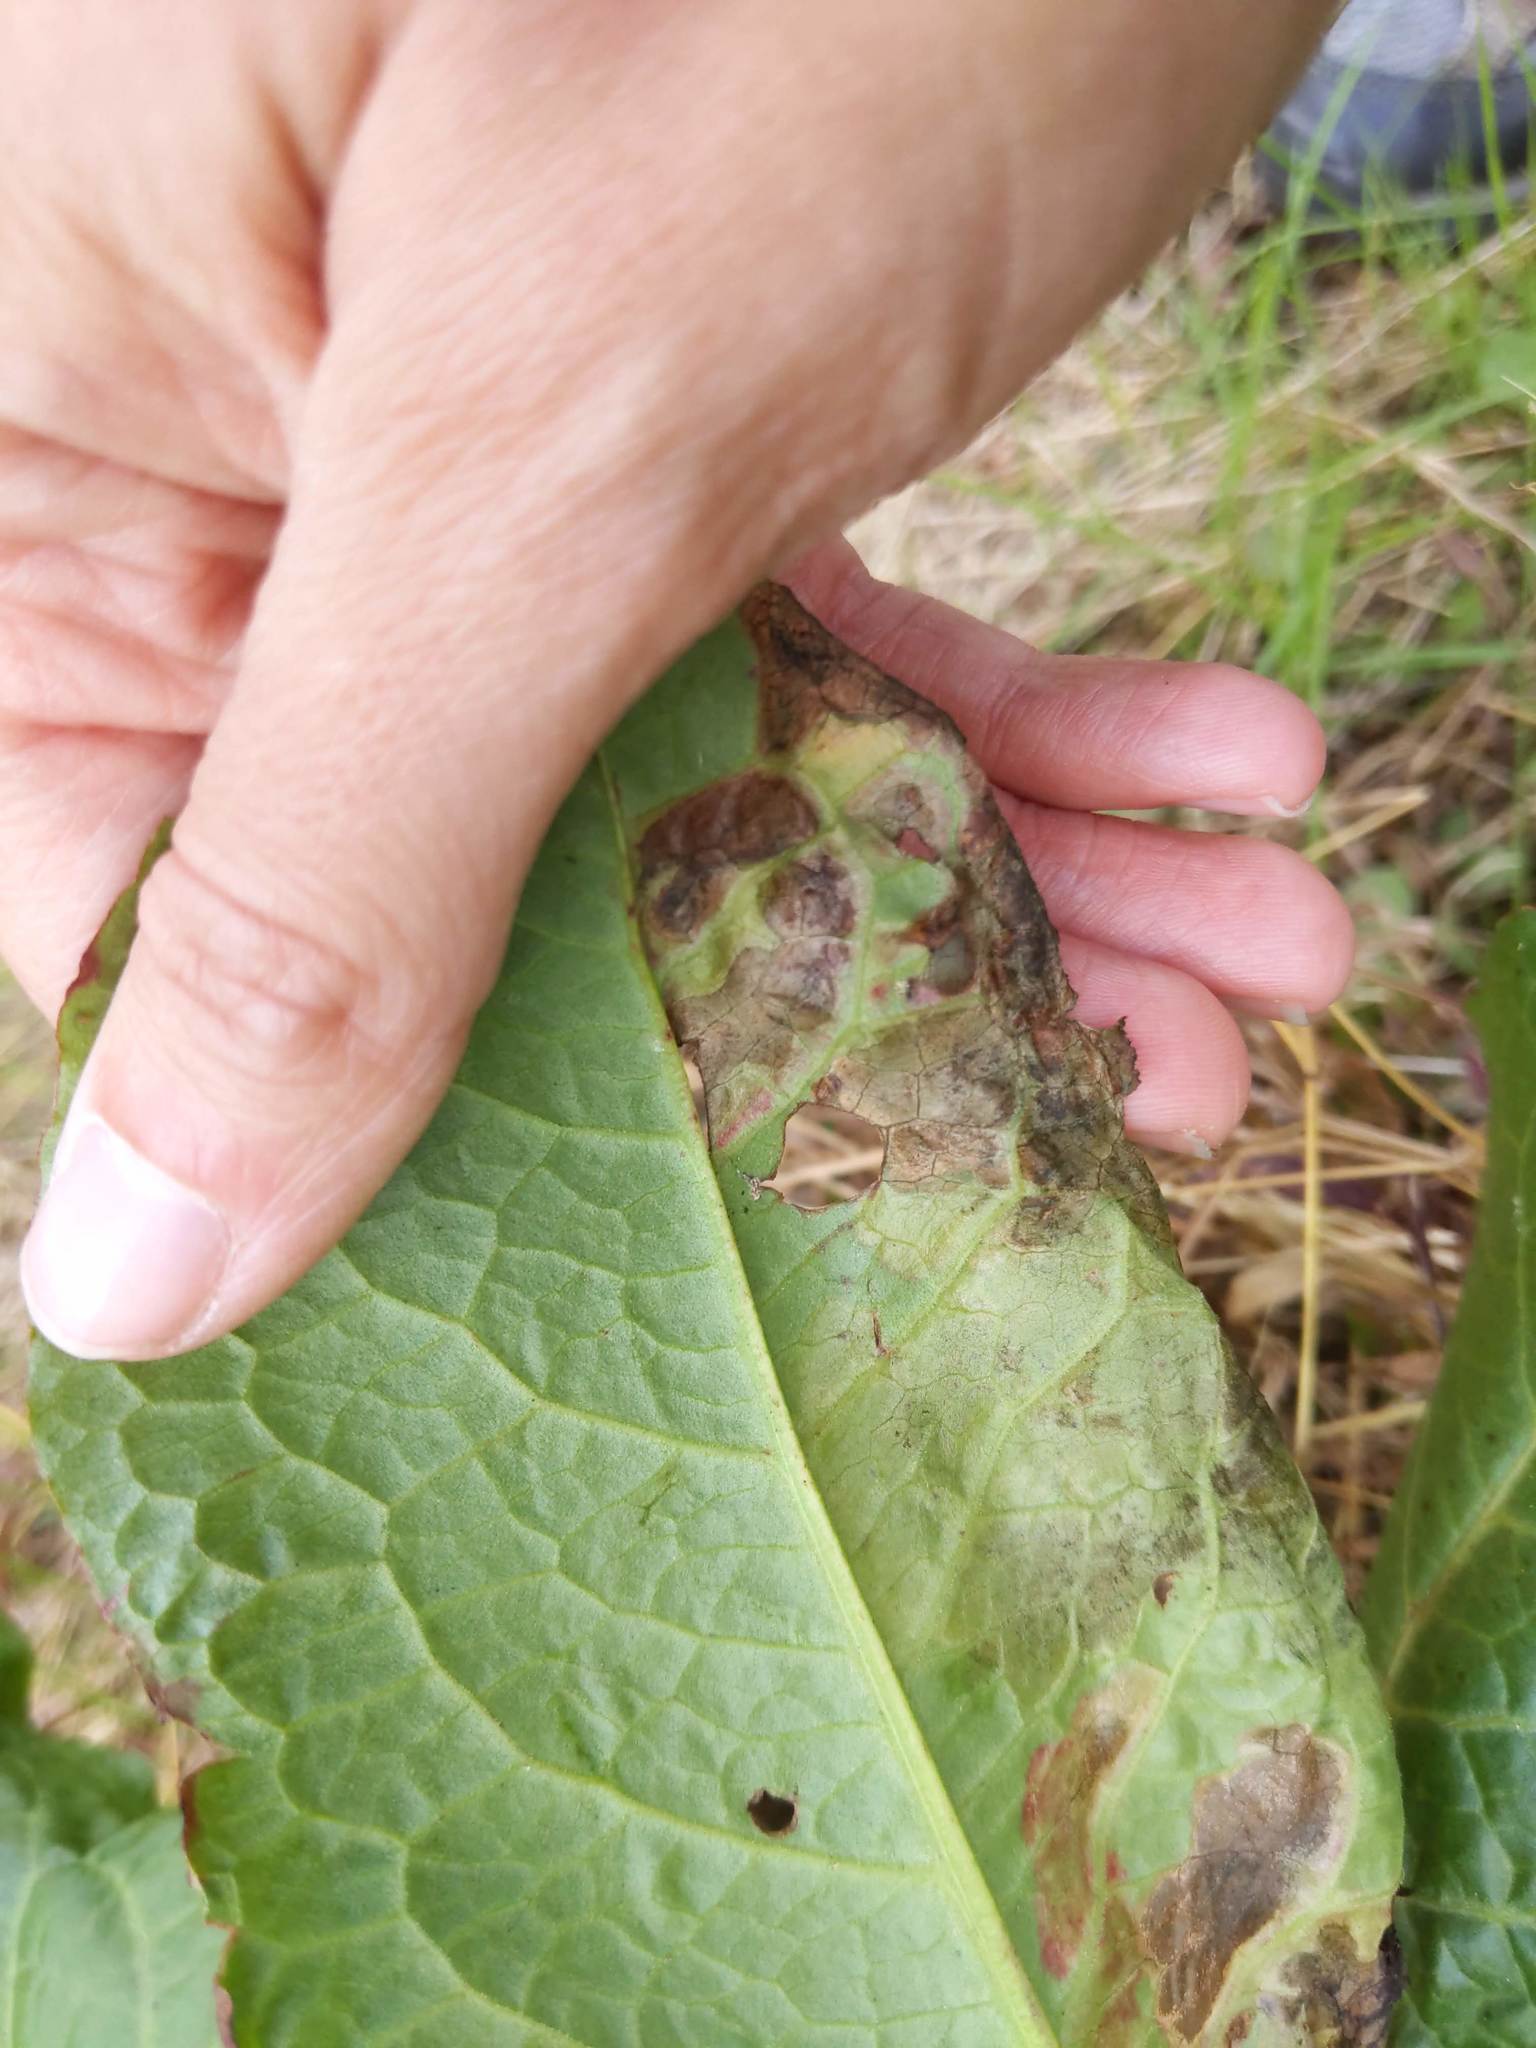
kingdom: Animalia
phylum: Arthropoda
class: Insecta
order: Diptera
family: Anthomyiidae
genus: Pegomya
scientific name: Pegomya bicolor
